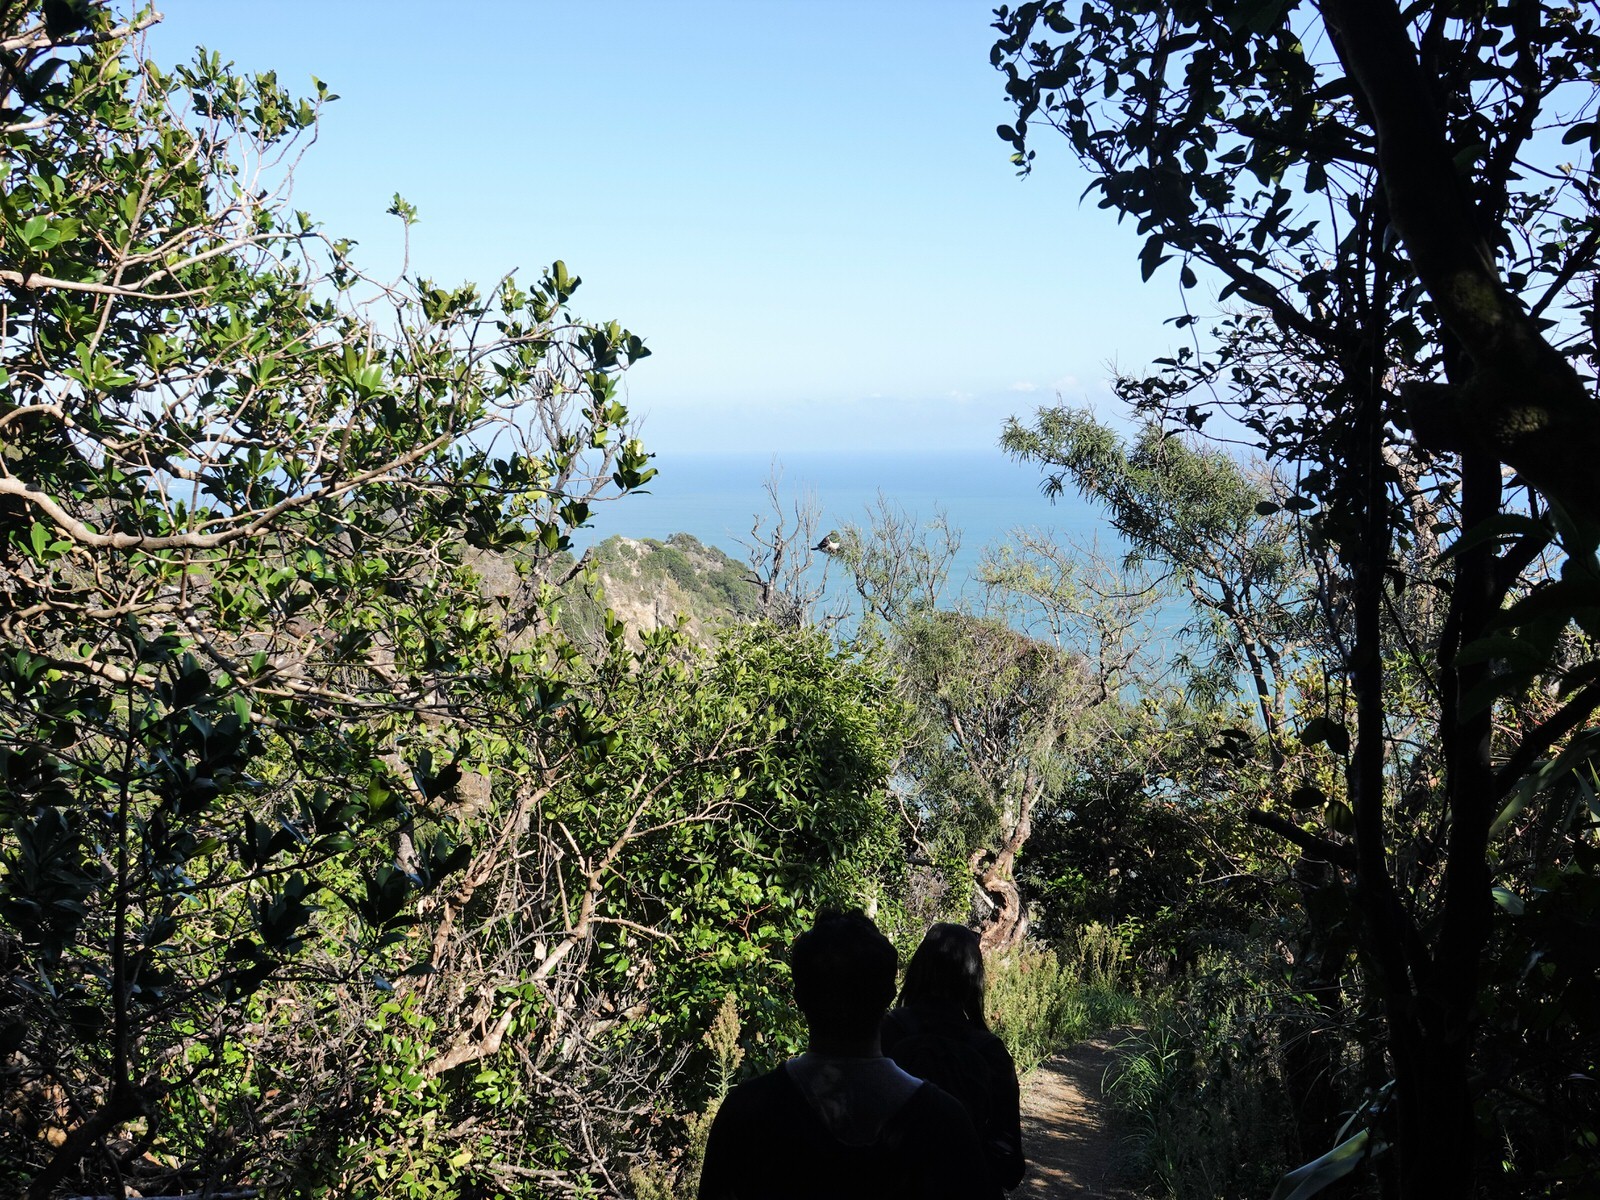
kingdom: Animalia
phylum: Chordata
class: Aves
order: Columbiformes
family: Columbidae
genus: Hemiphaga
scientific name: Hemiphaga novaeseelandiae
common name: New zealand pigeon
